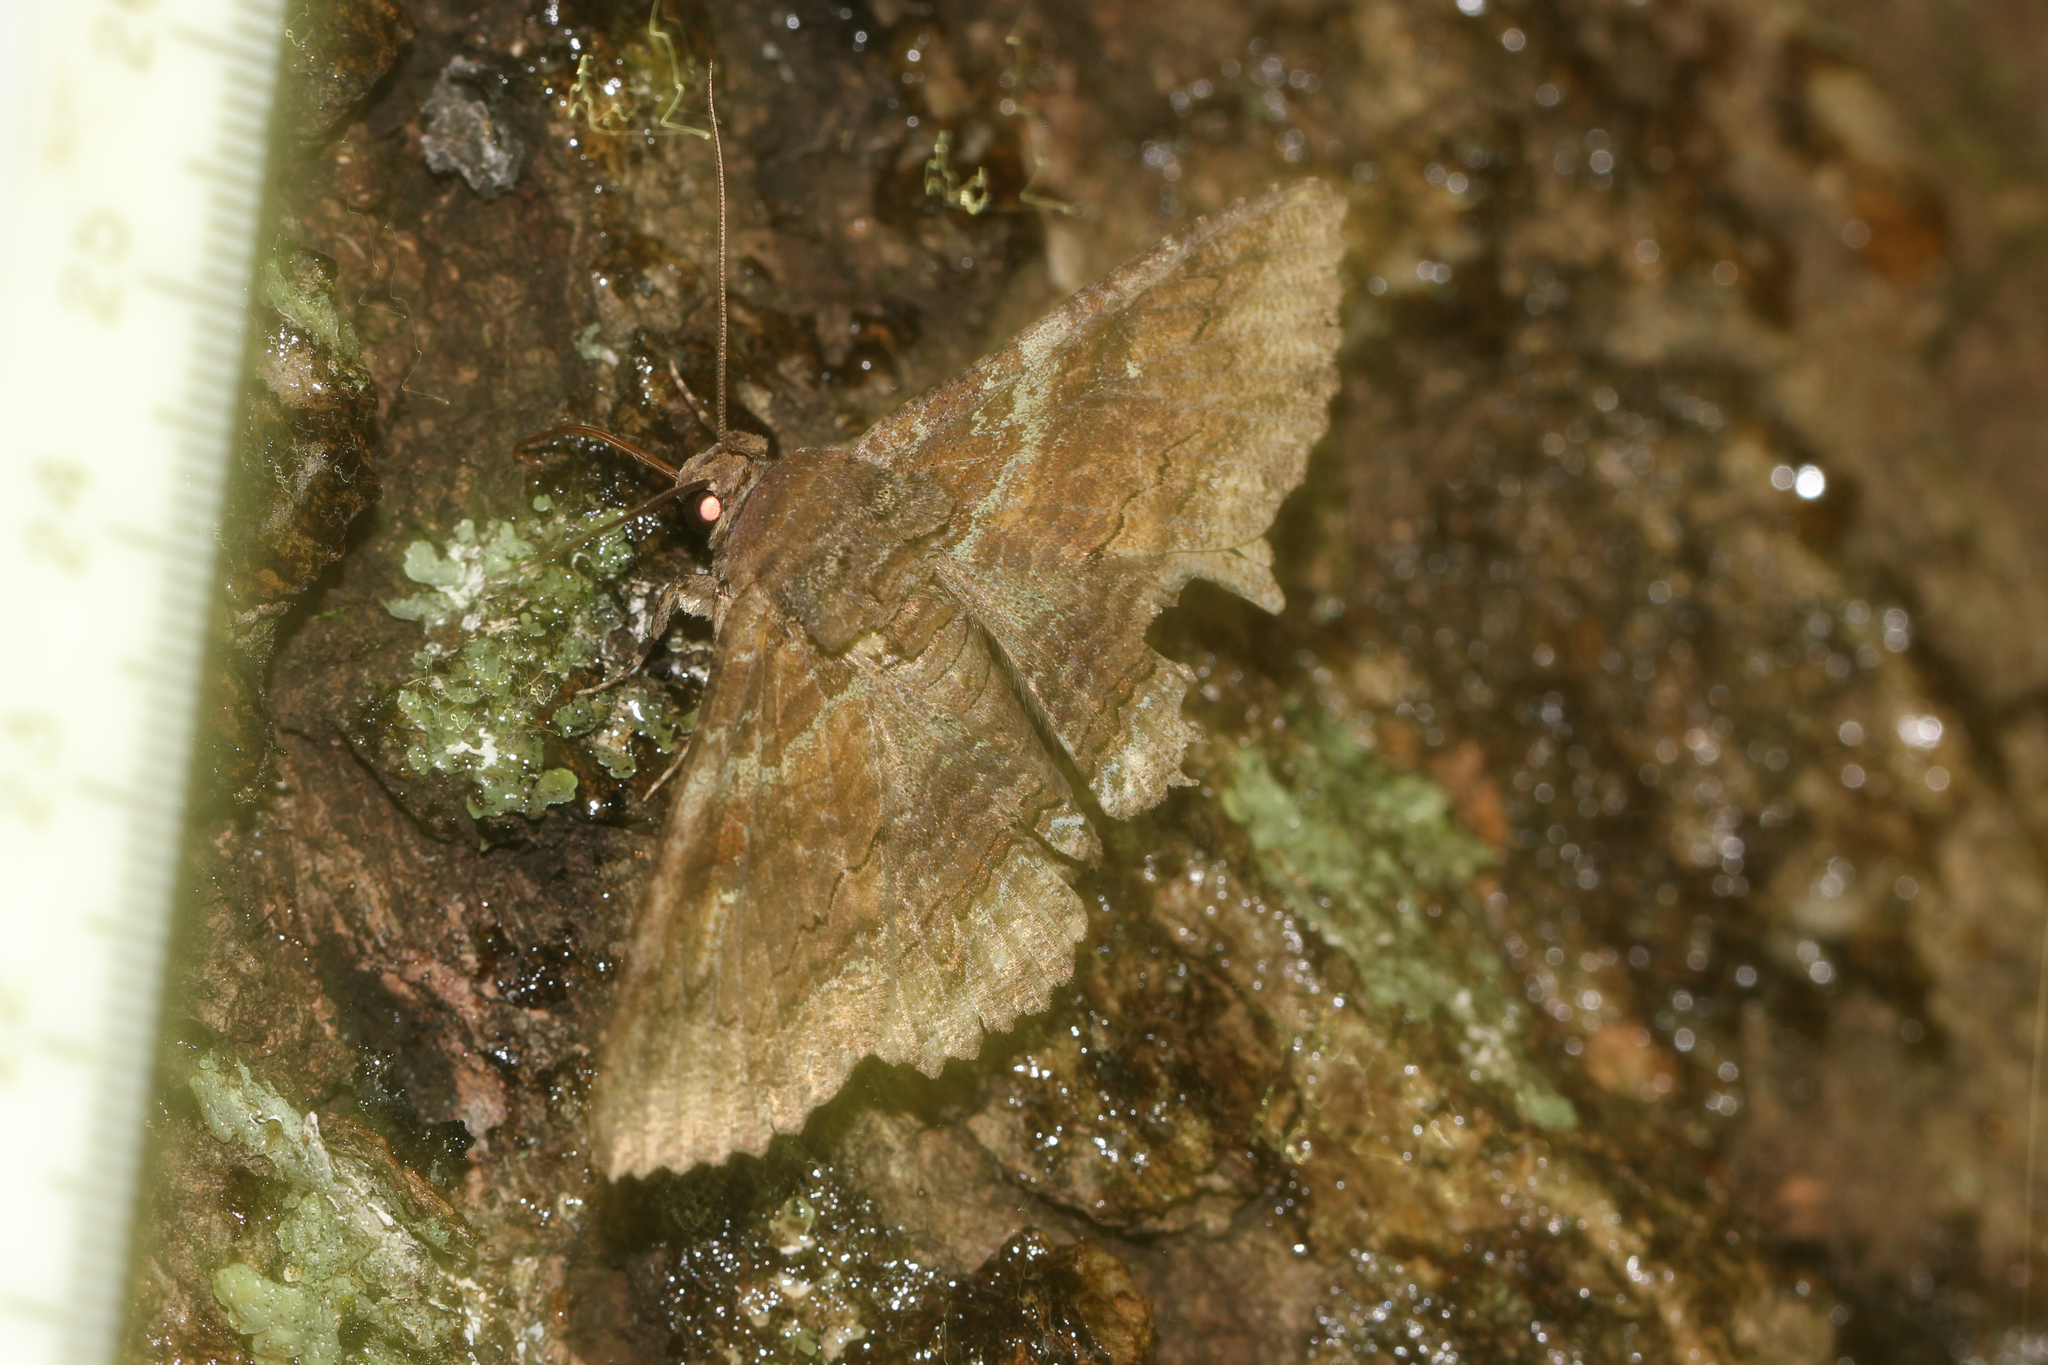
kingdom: Animalia
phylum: Arthropoda
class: Insecta
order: Lepidoptera
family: Erebidae
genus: Zale
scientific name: Zale lunata
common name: Lunate zale moth
